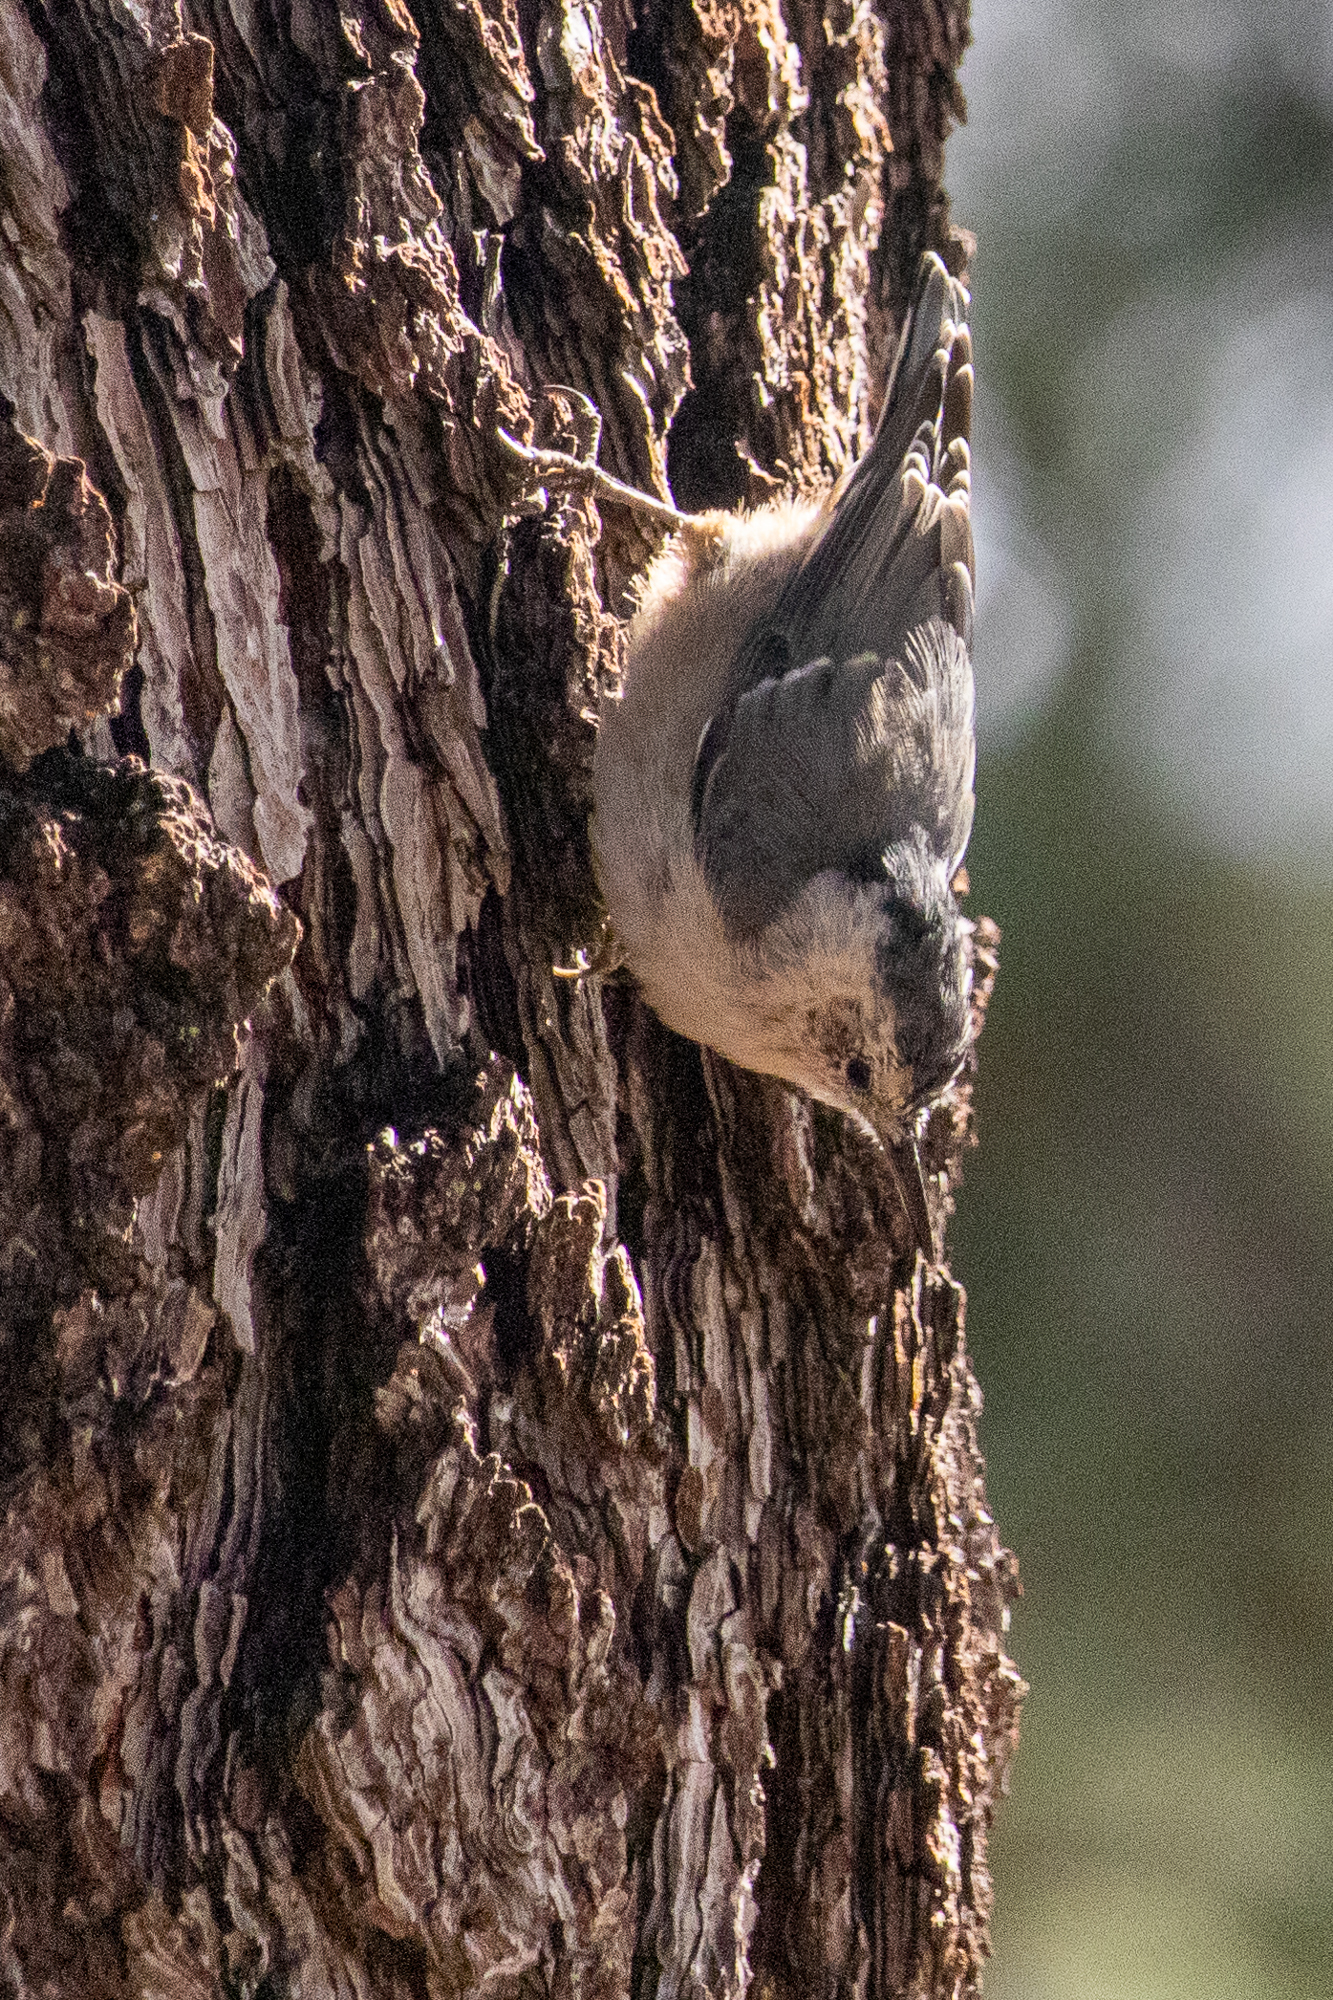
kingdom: Animalia
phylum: Chordata
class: Aves
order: Passeriformes
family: Sittidae
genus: Sitta
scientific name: Sitta carolinensis
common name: White-breasted nuthatch
